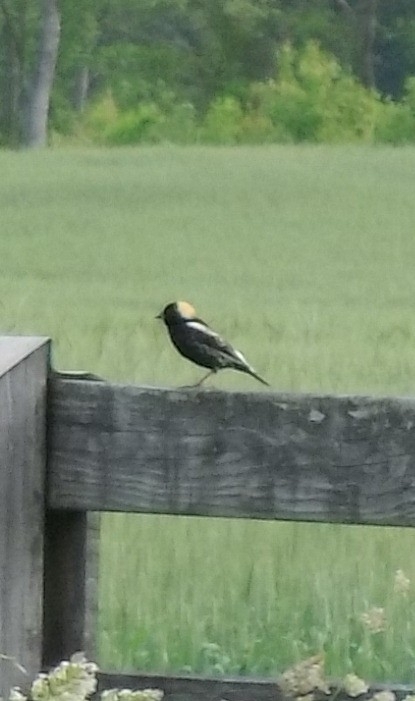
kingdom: Animalia
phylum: Chordata
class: Aves
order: Passeriformes
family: Icteridae
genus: Dolichonyx
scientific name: Dolichonyx oryzivorus
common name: Bobolink
